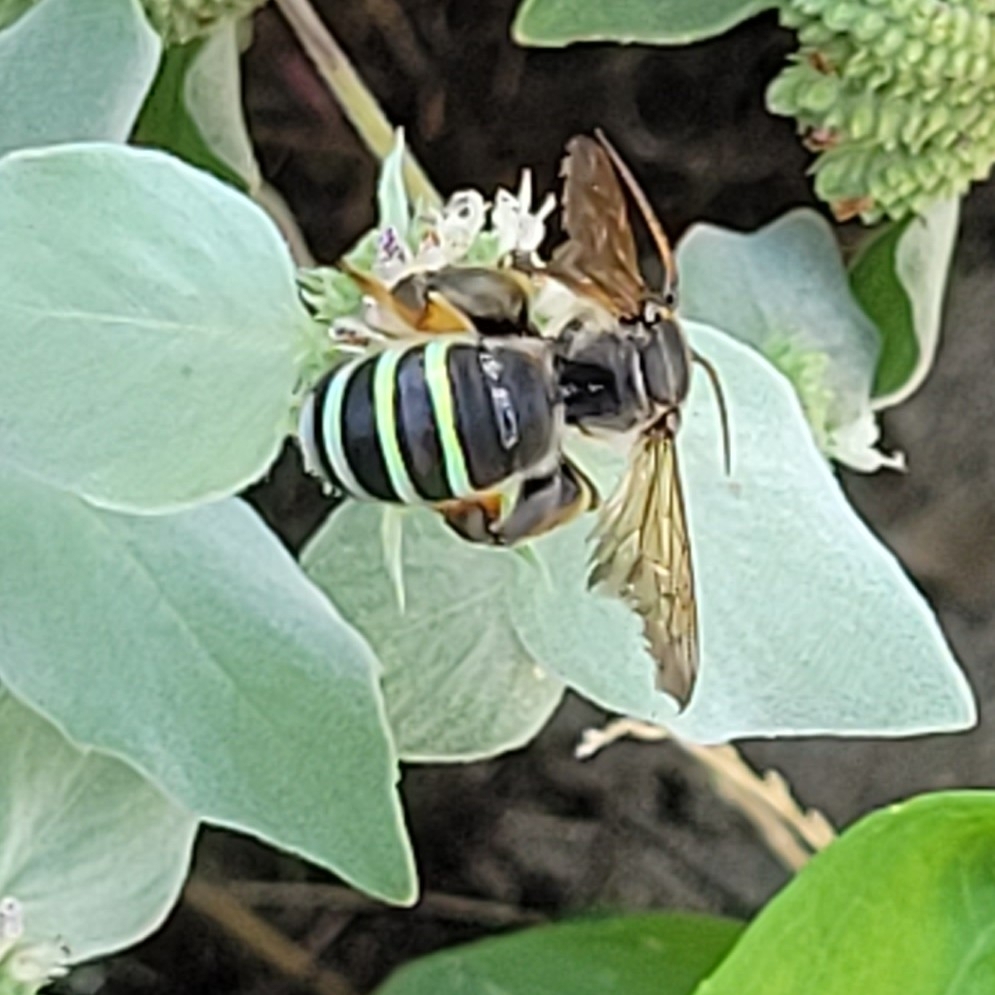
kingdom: Animalia
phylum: Arthropoda
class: Insecta
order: Hymenoptera
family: Halictidae
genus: Nomia
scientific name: Nomia nortoni
